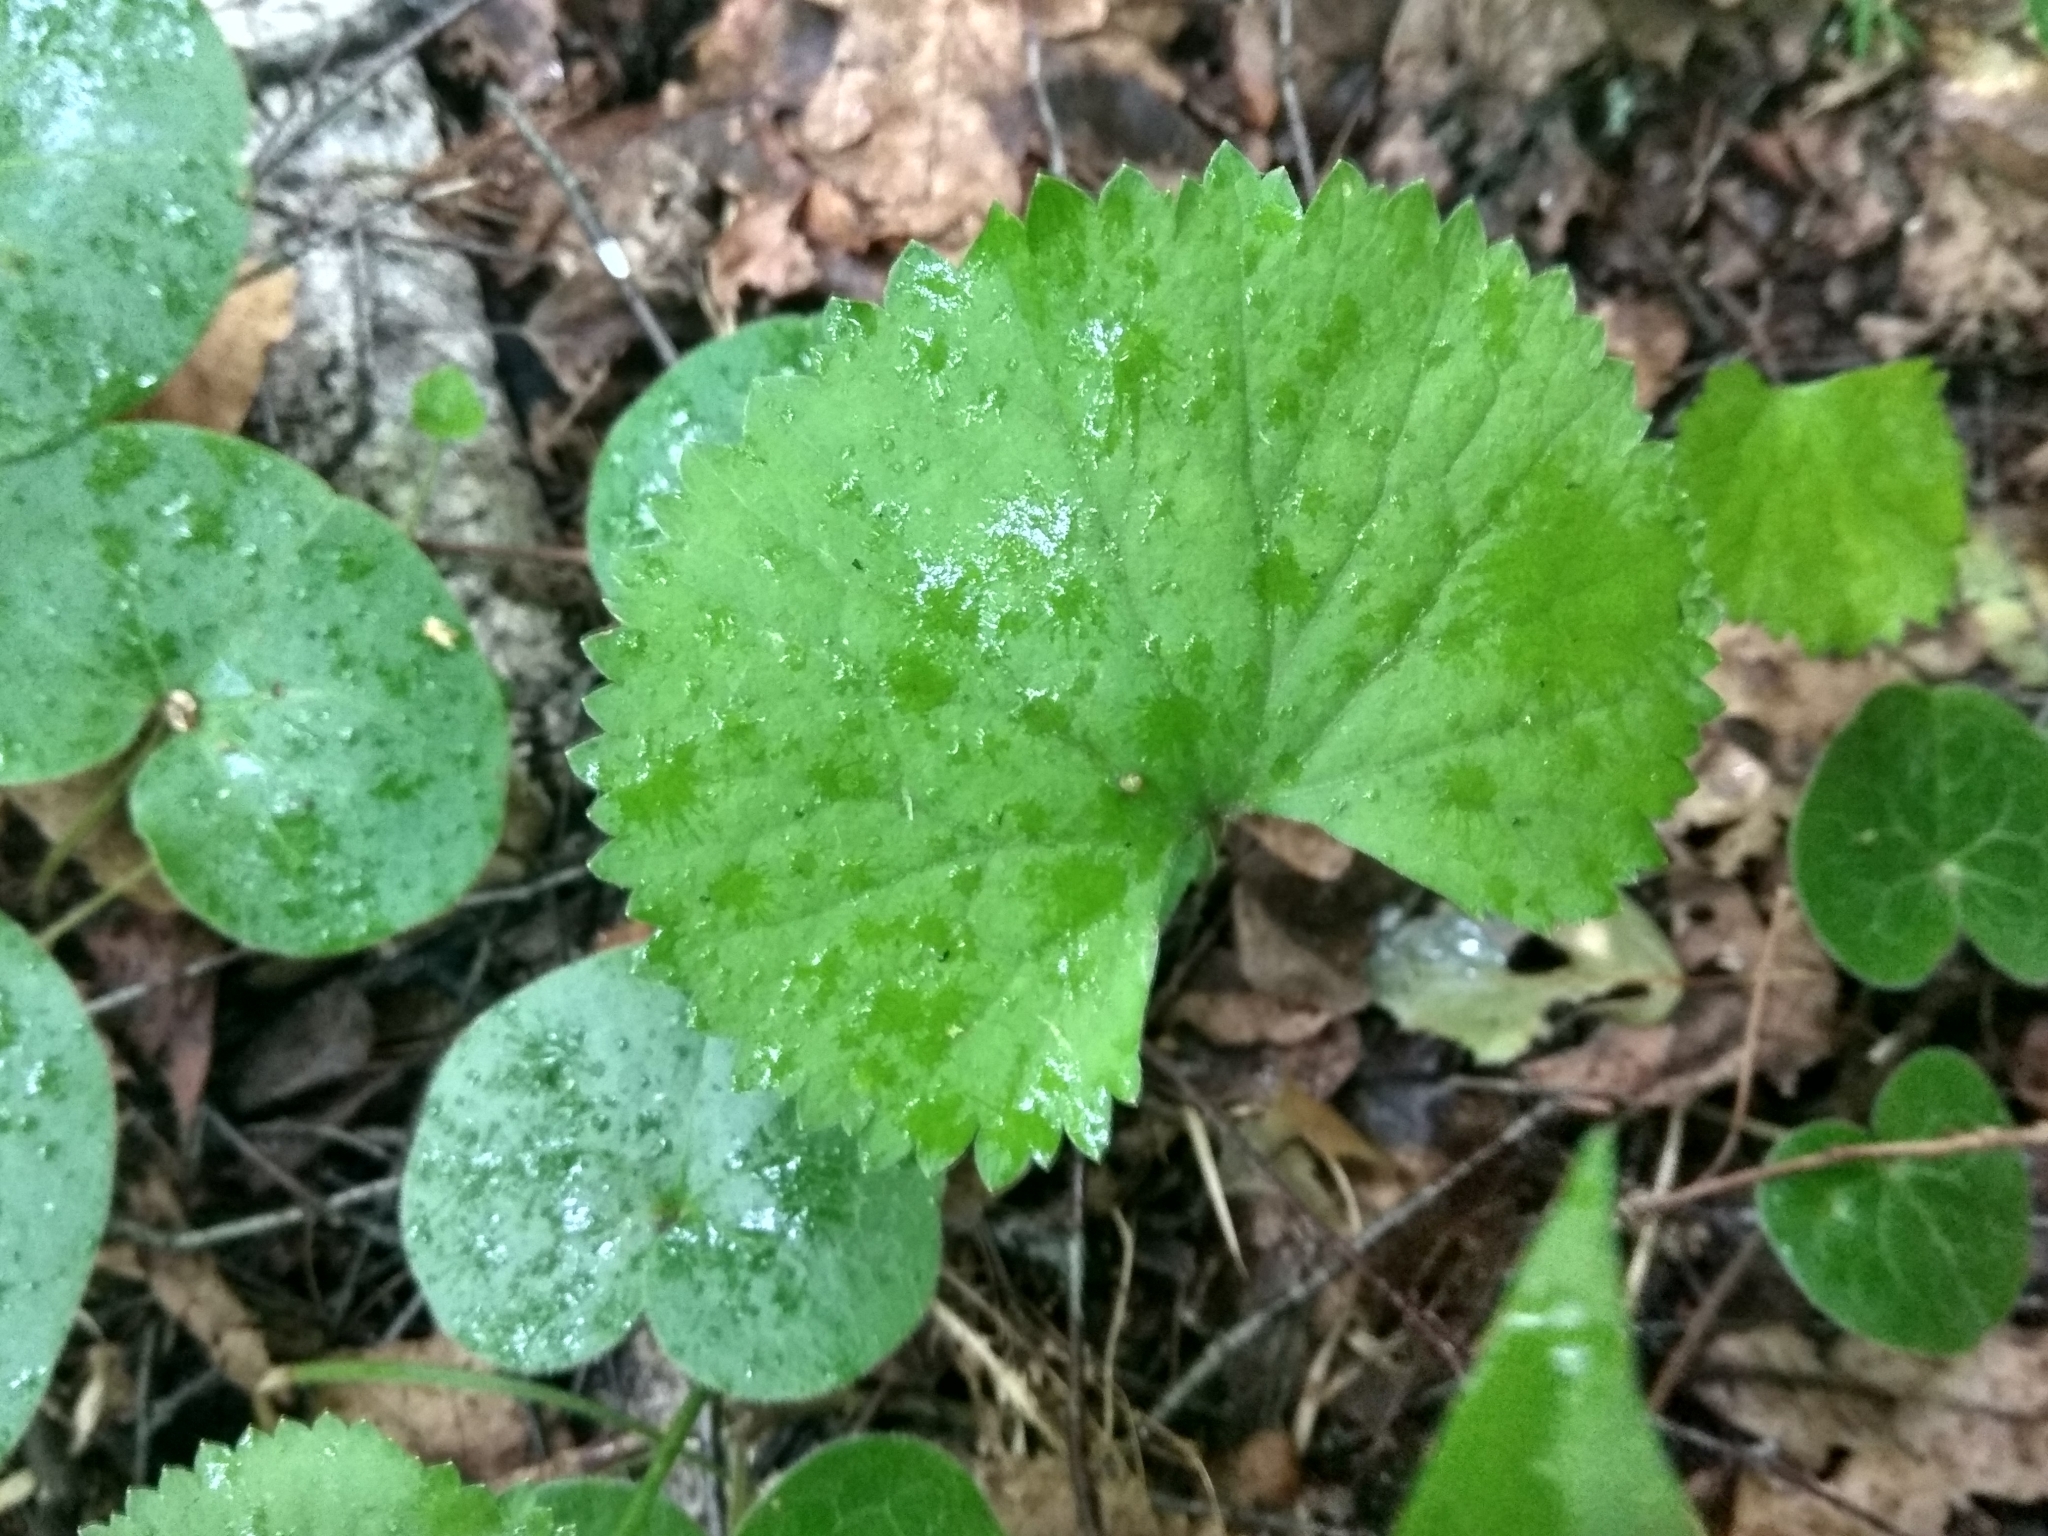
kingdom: Plantae
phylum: Tracheophyta
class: Magnoliopsida
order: Ranunculales
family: Ranunculaceae
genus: Ranunculus
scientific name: Ranunculus cassubicus
